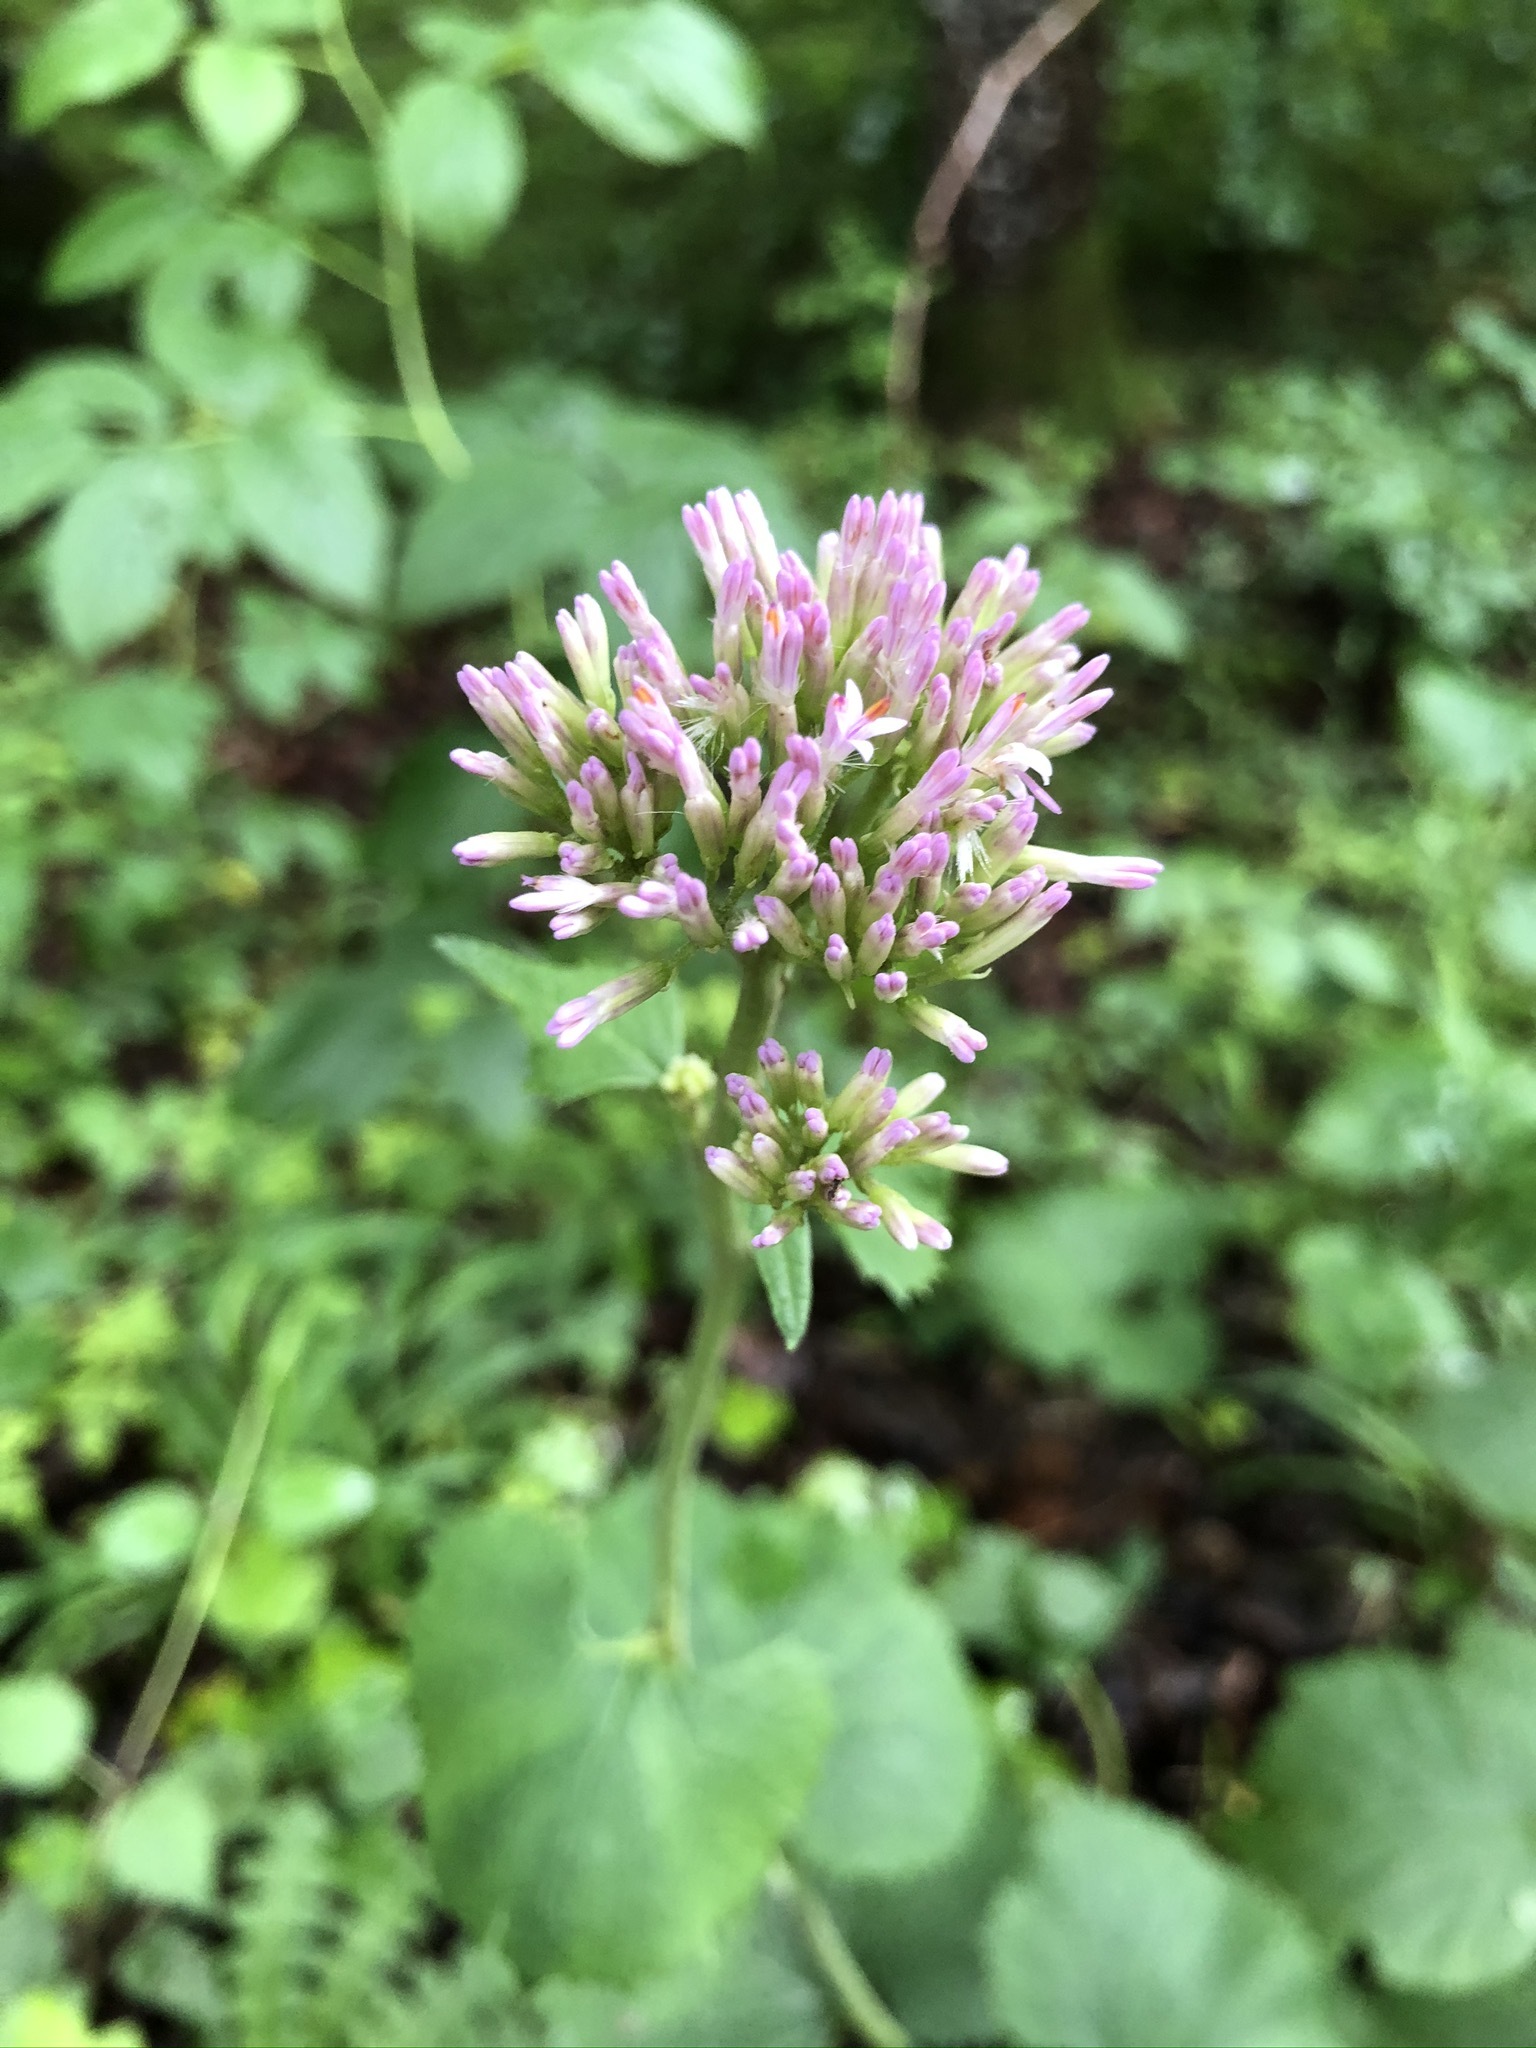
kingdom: Plantae
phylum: Tracheophyta
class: Magnoliopsida
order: Asterales
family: Asteraceae
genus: Adenostyles
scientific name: Adenostyles alpina
